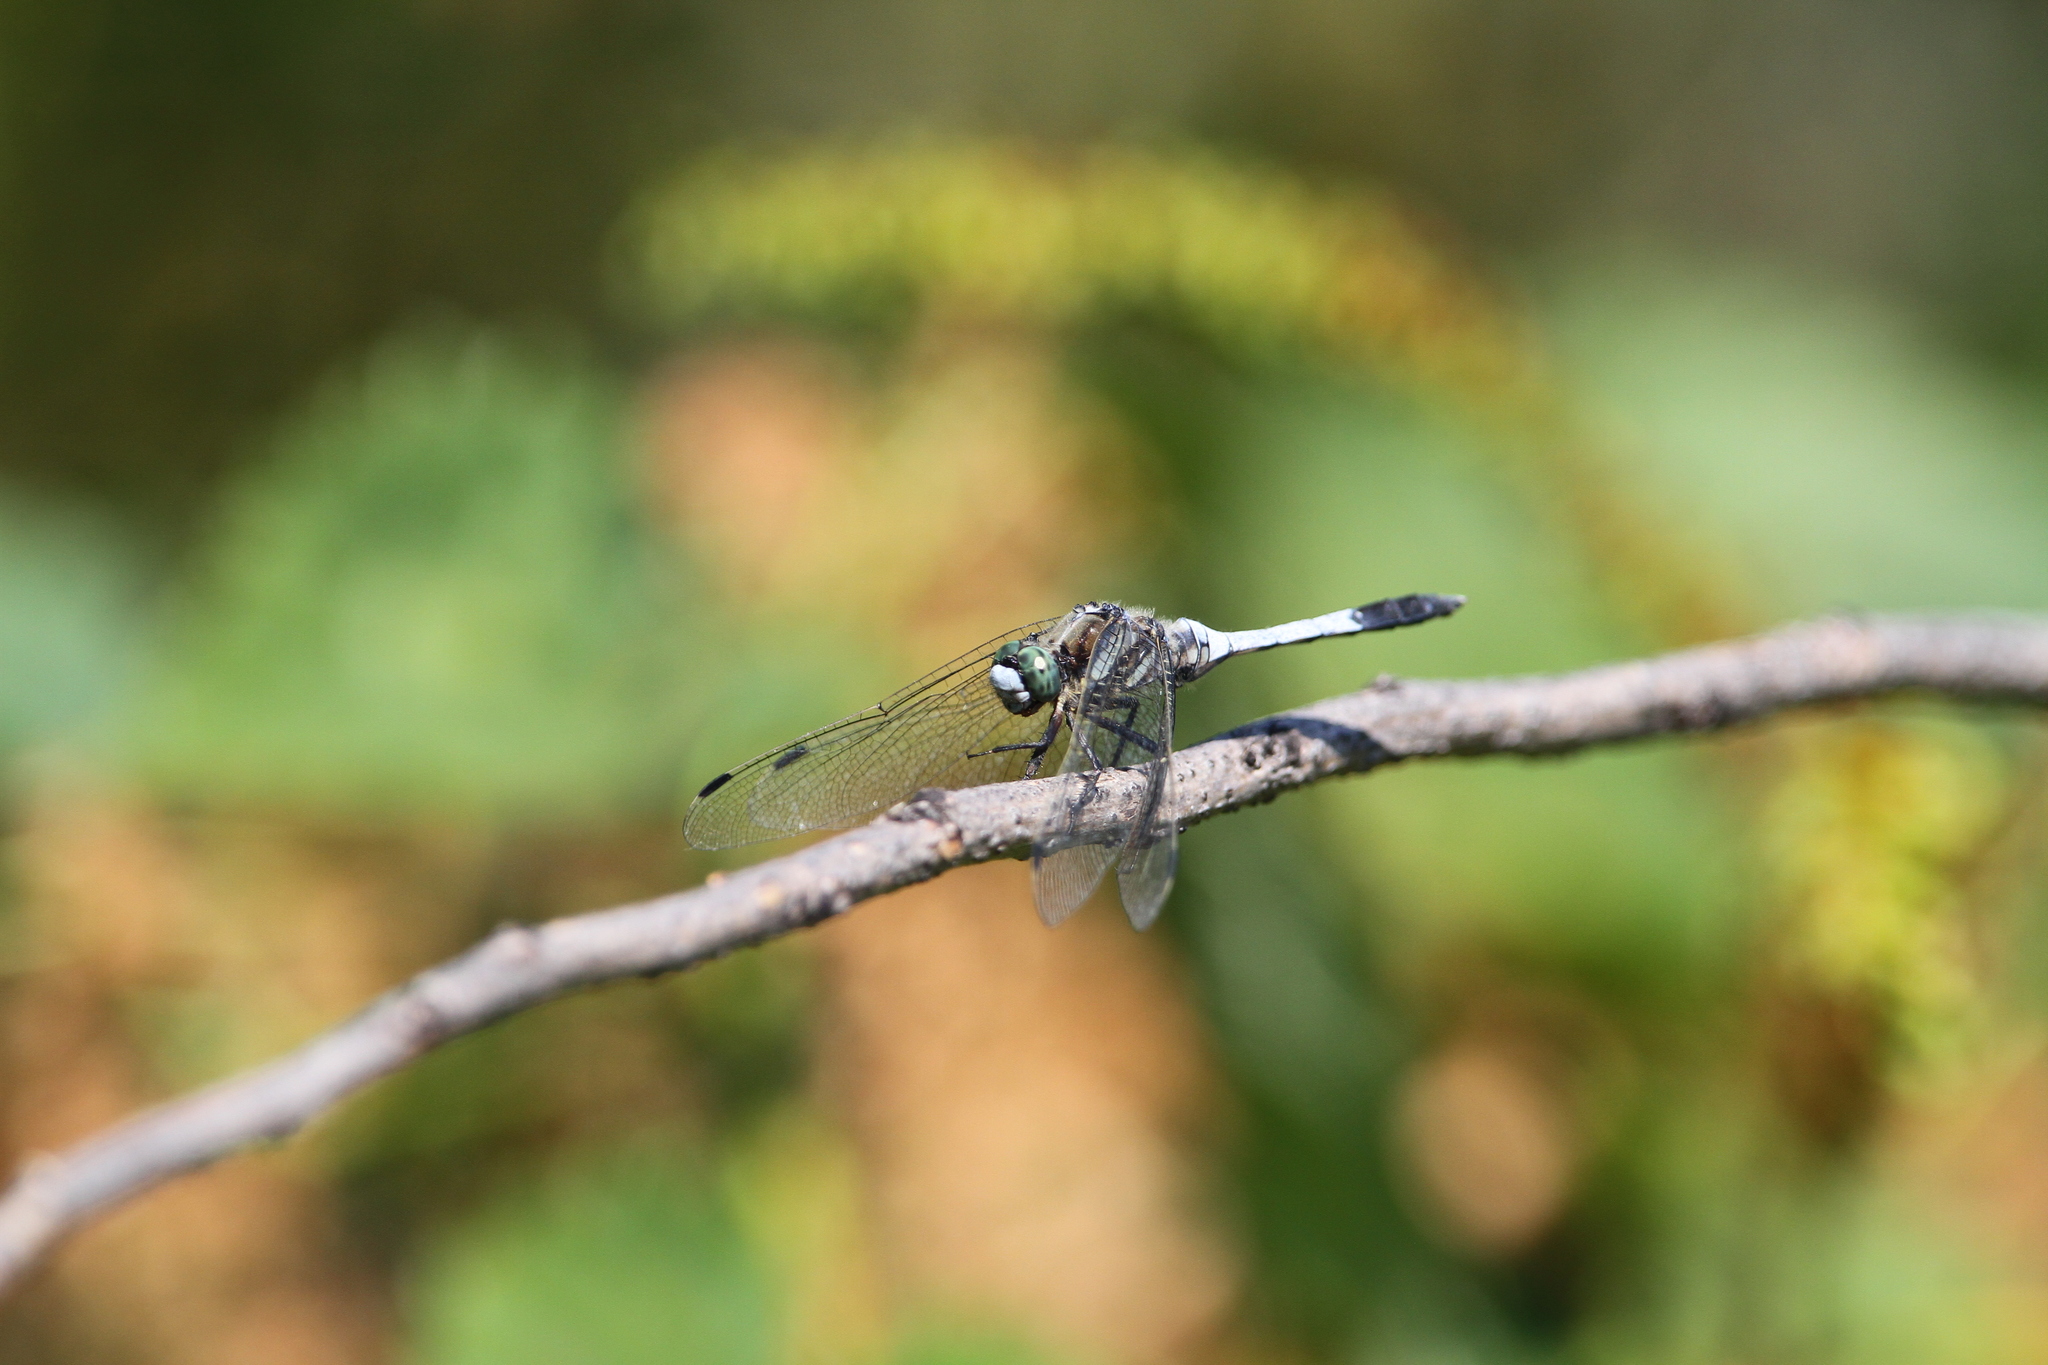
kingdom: Animalia
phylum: Arthropoda
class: Insecta
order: Odonata
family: Libellulidae
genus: Orthetrum
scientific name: Orthetrum albistylum
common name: White-tailed skimmer
